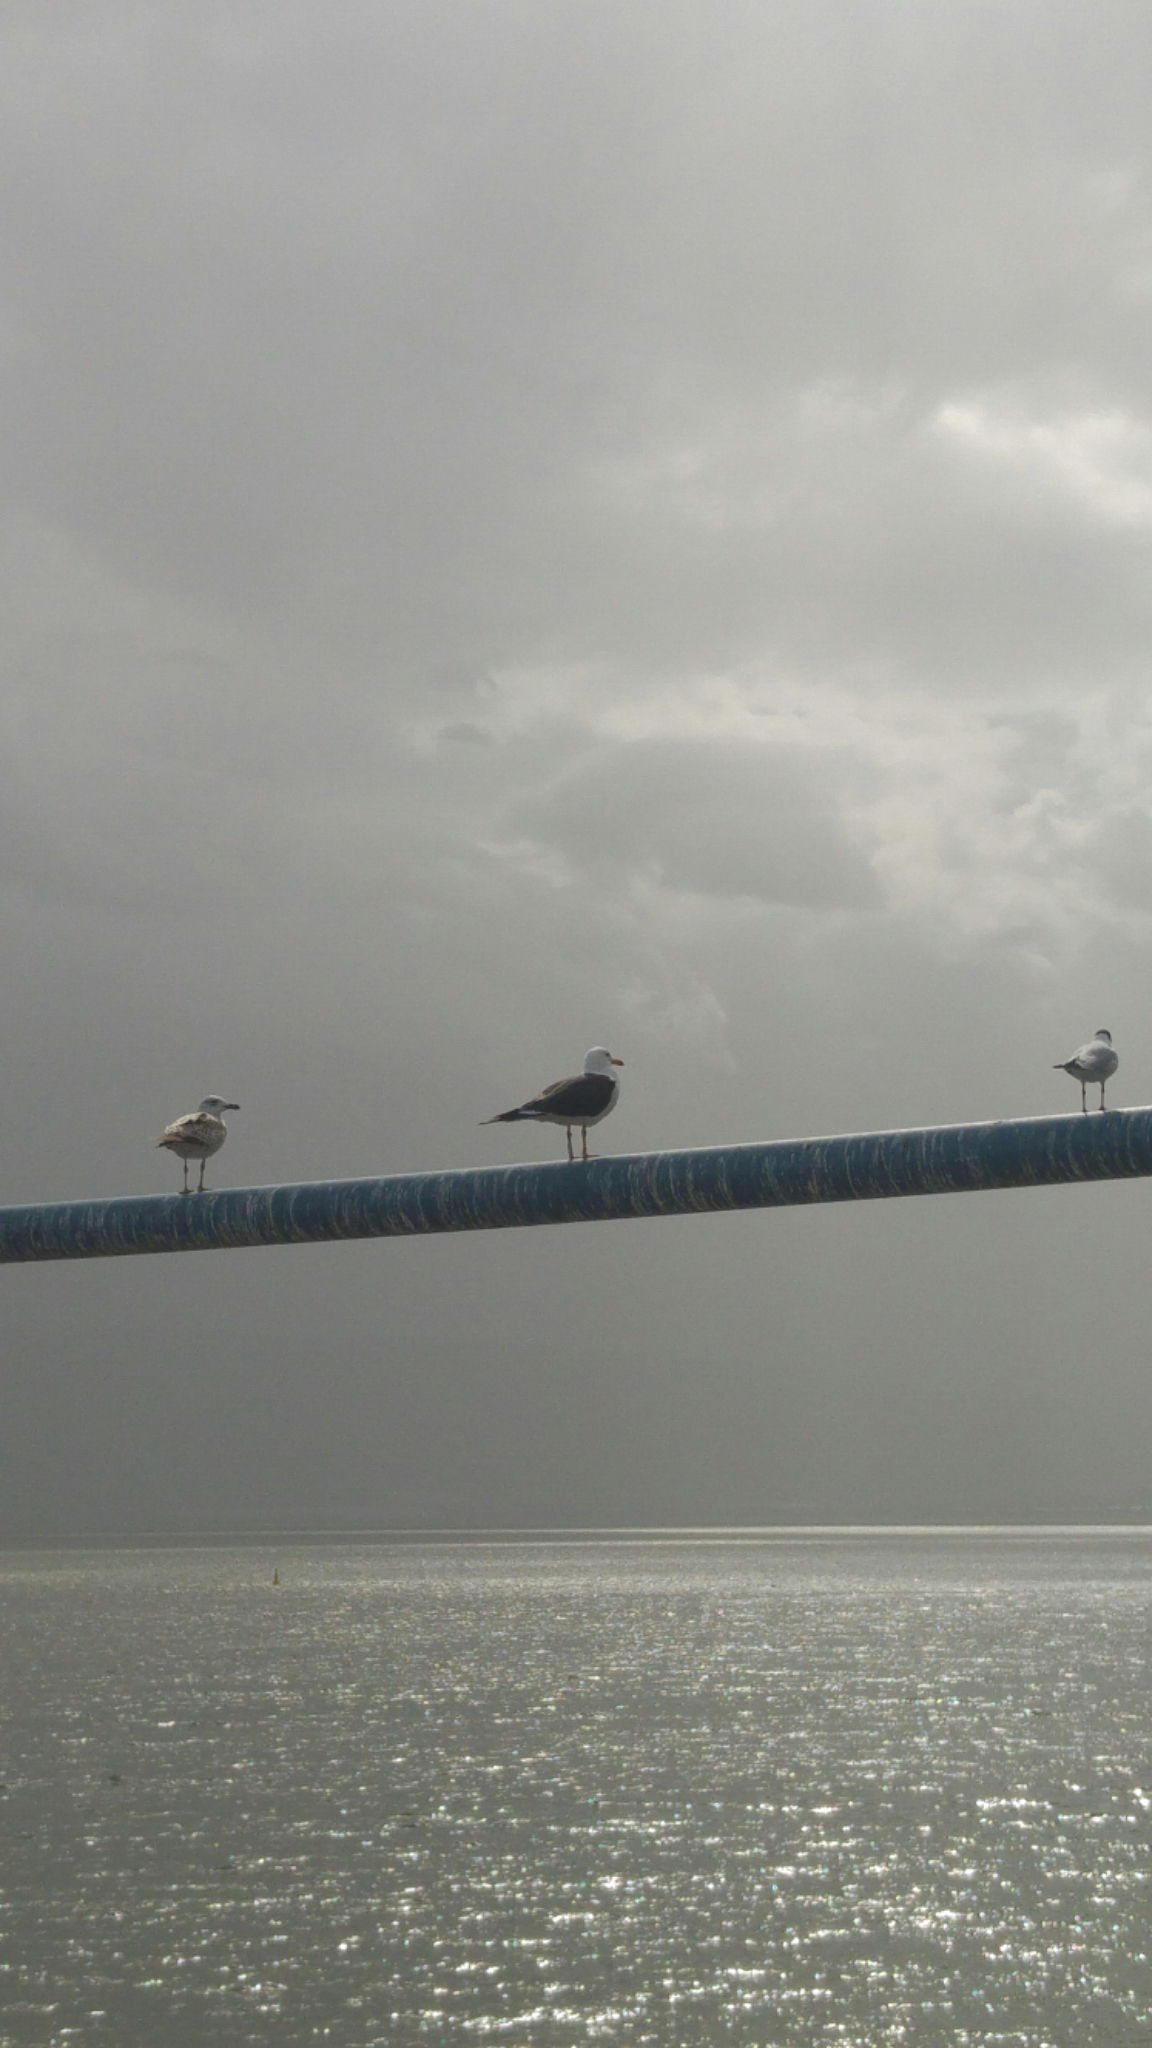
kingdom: Animalia
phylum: Chordata
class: Aves
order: Charadriiformes
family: Laridae
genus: Larus
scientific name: Larus fuscus
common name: Lesser black-backed gull
